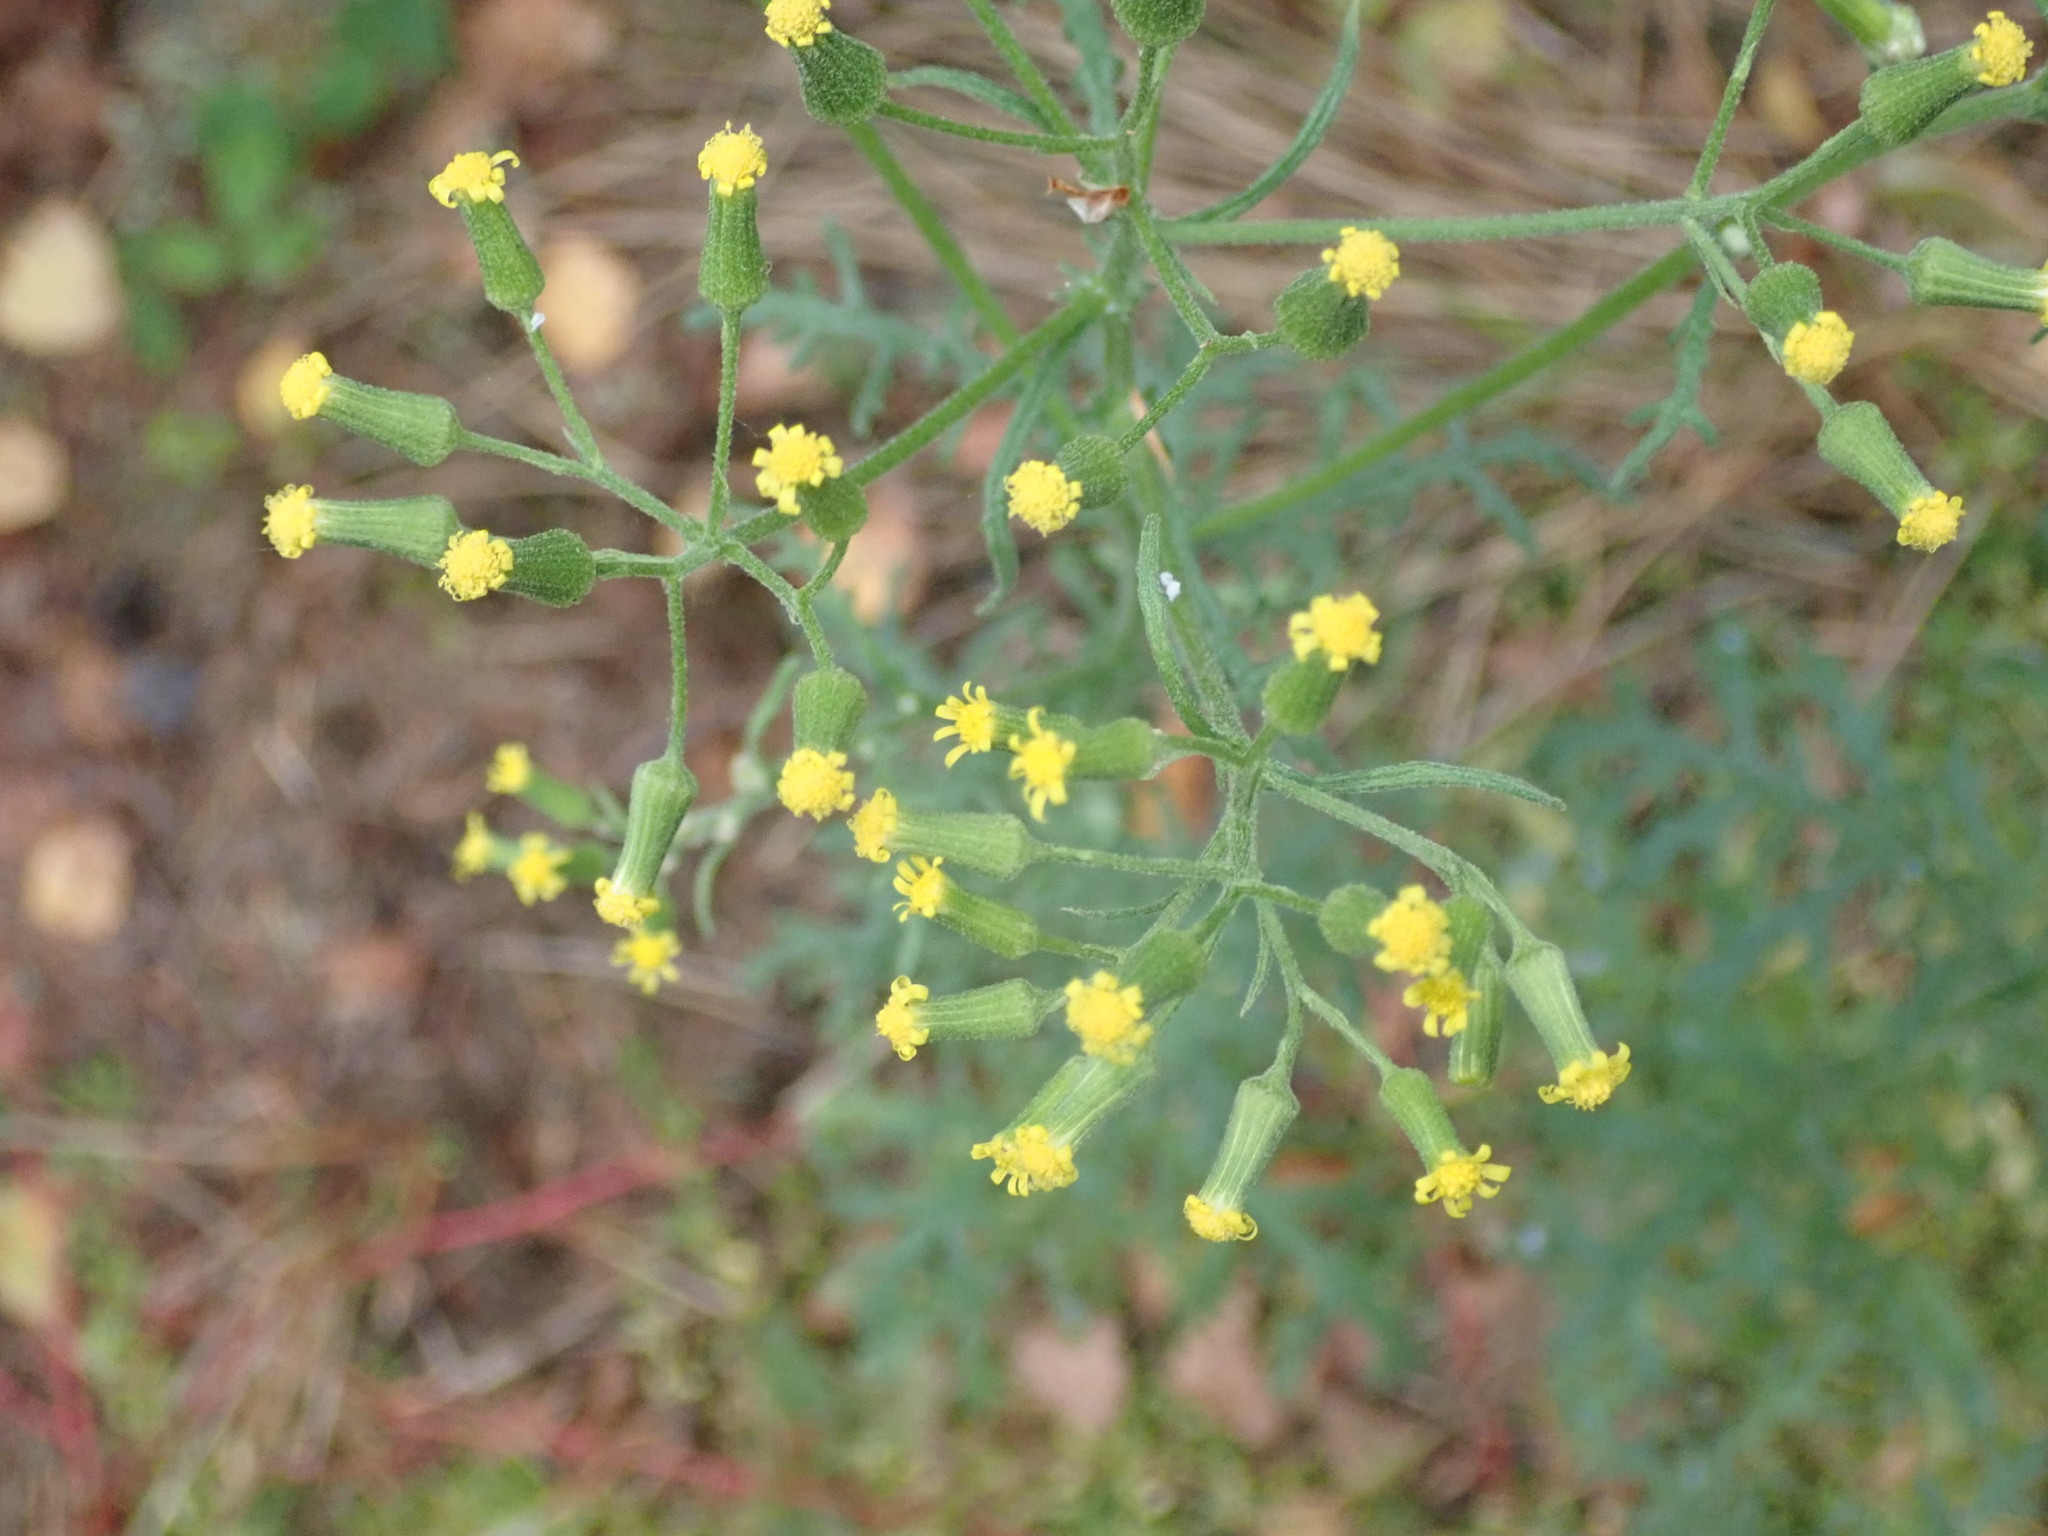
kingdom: Plantae
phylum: Tracheophyta
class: Magnoliopsida
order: Asterales
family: Asteraceae
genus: Senecio
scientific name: Senecio sylvaticus
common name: Woodland ragwort
